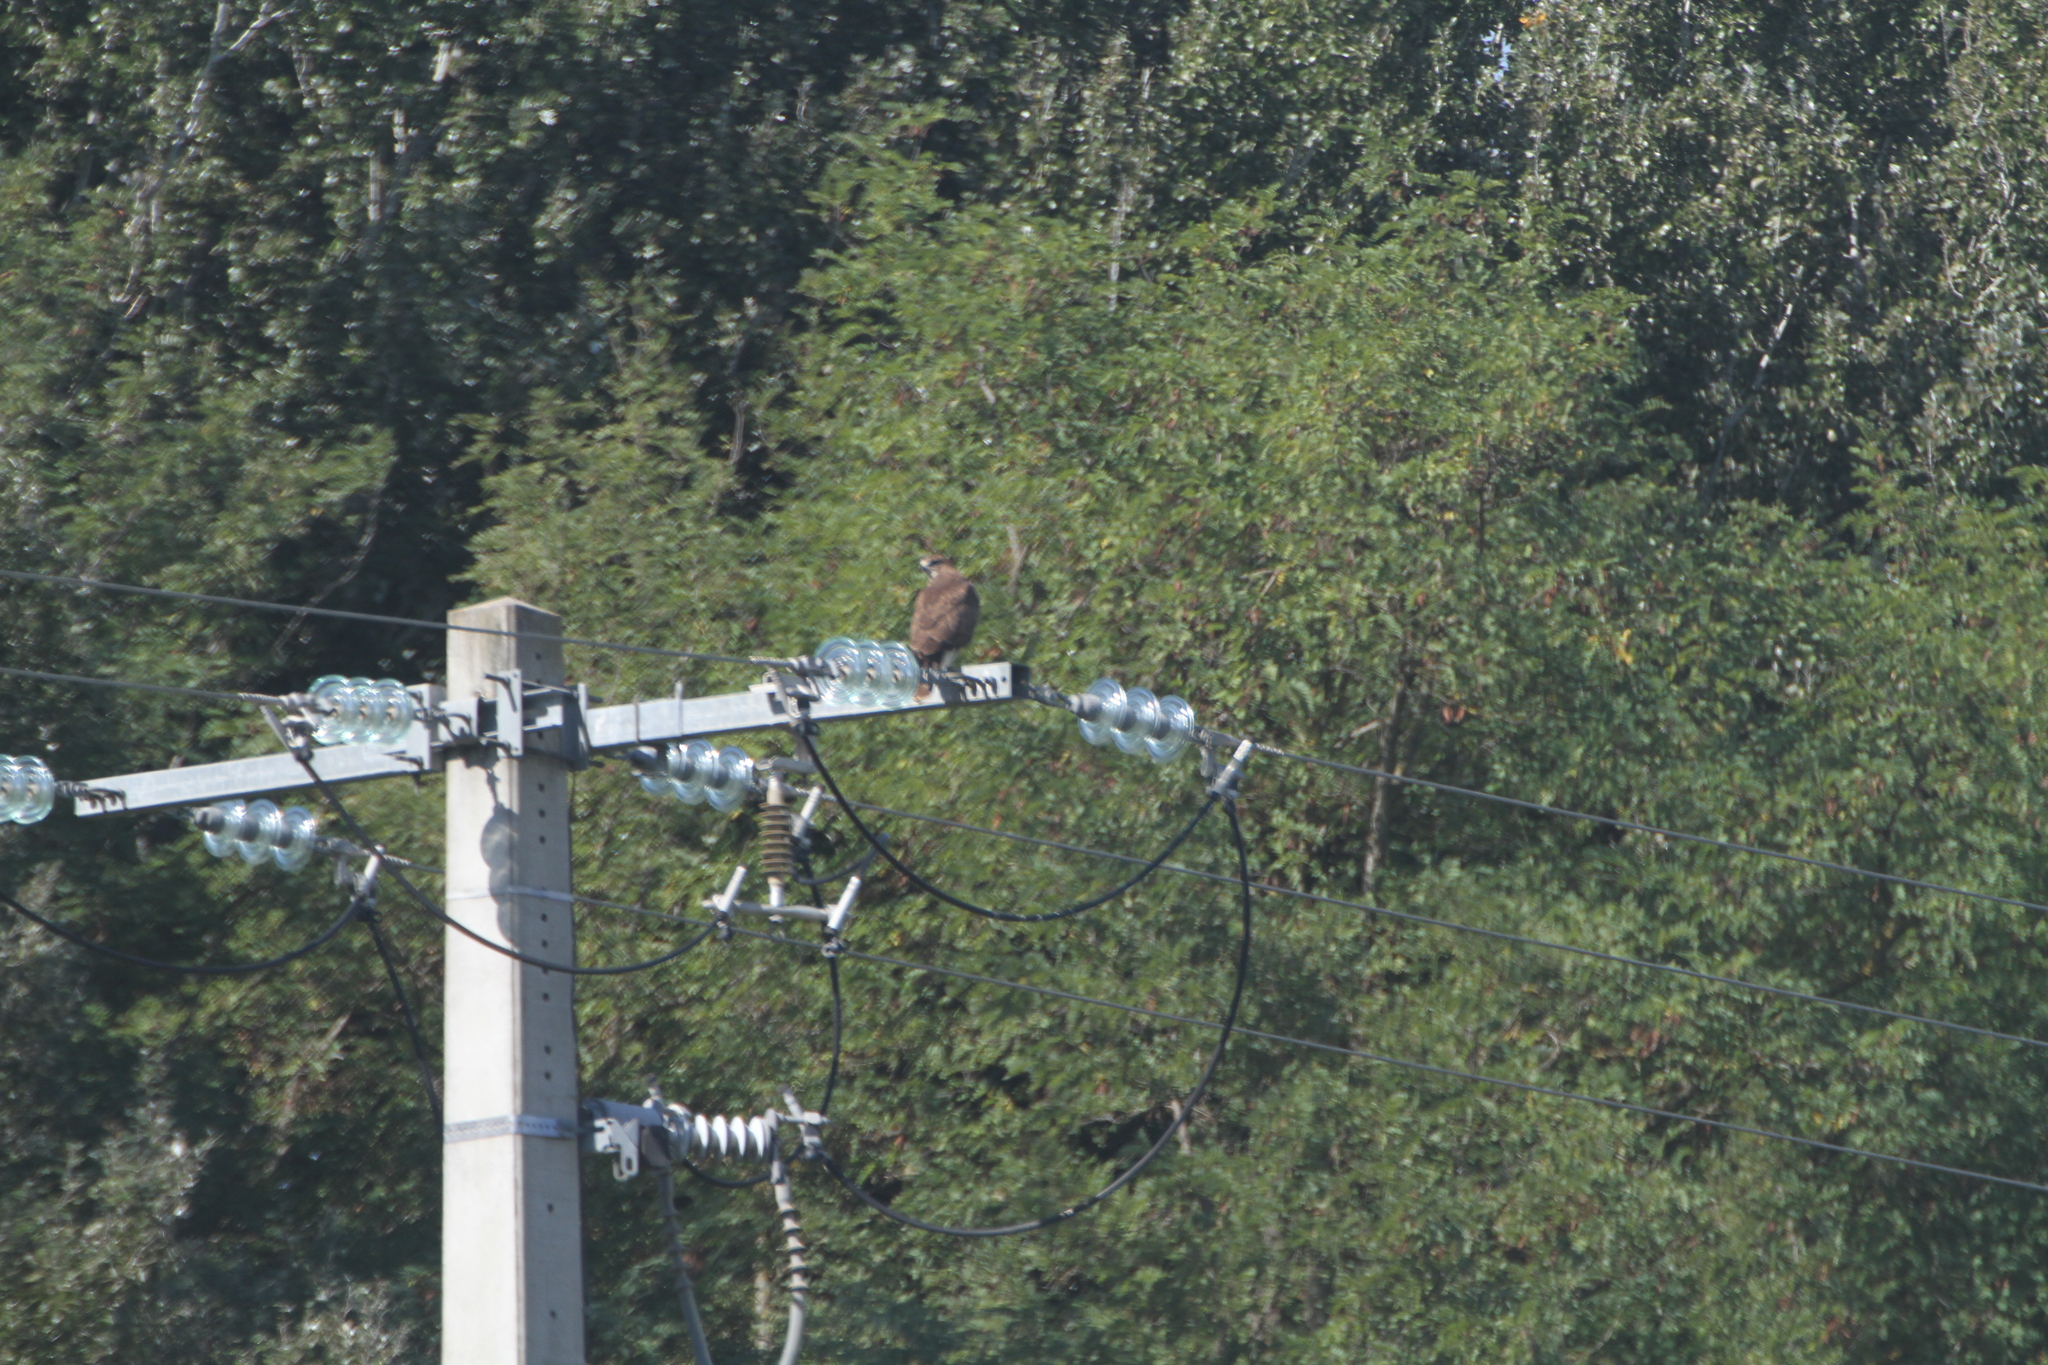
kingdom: Animalia
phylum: Chordata
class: Aves
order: Accipitriformes
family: Accipitridae
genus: Buteo
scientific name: Buteo buteo
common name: Common buzzard
